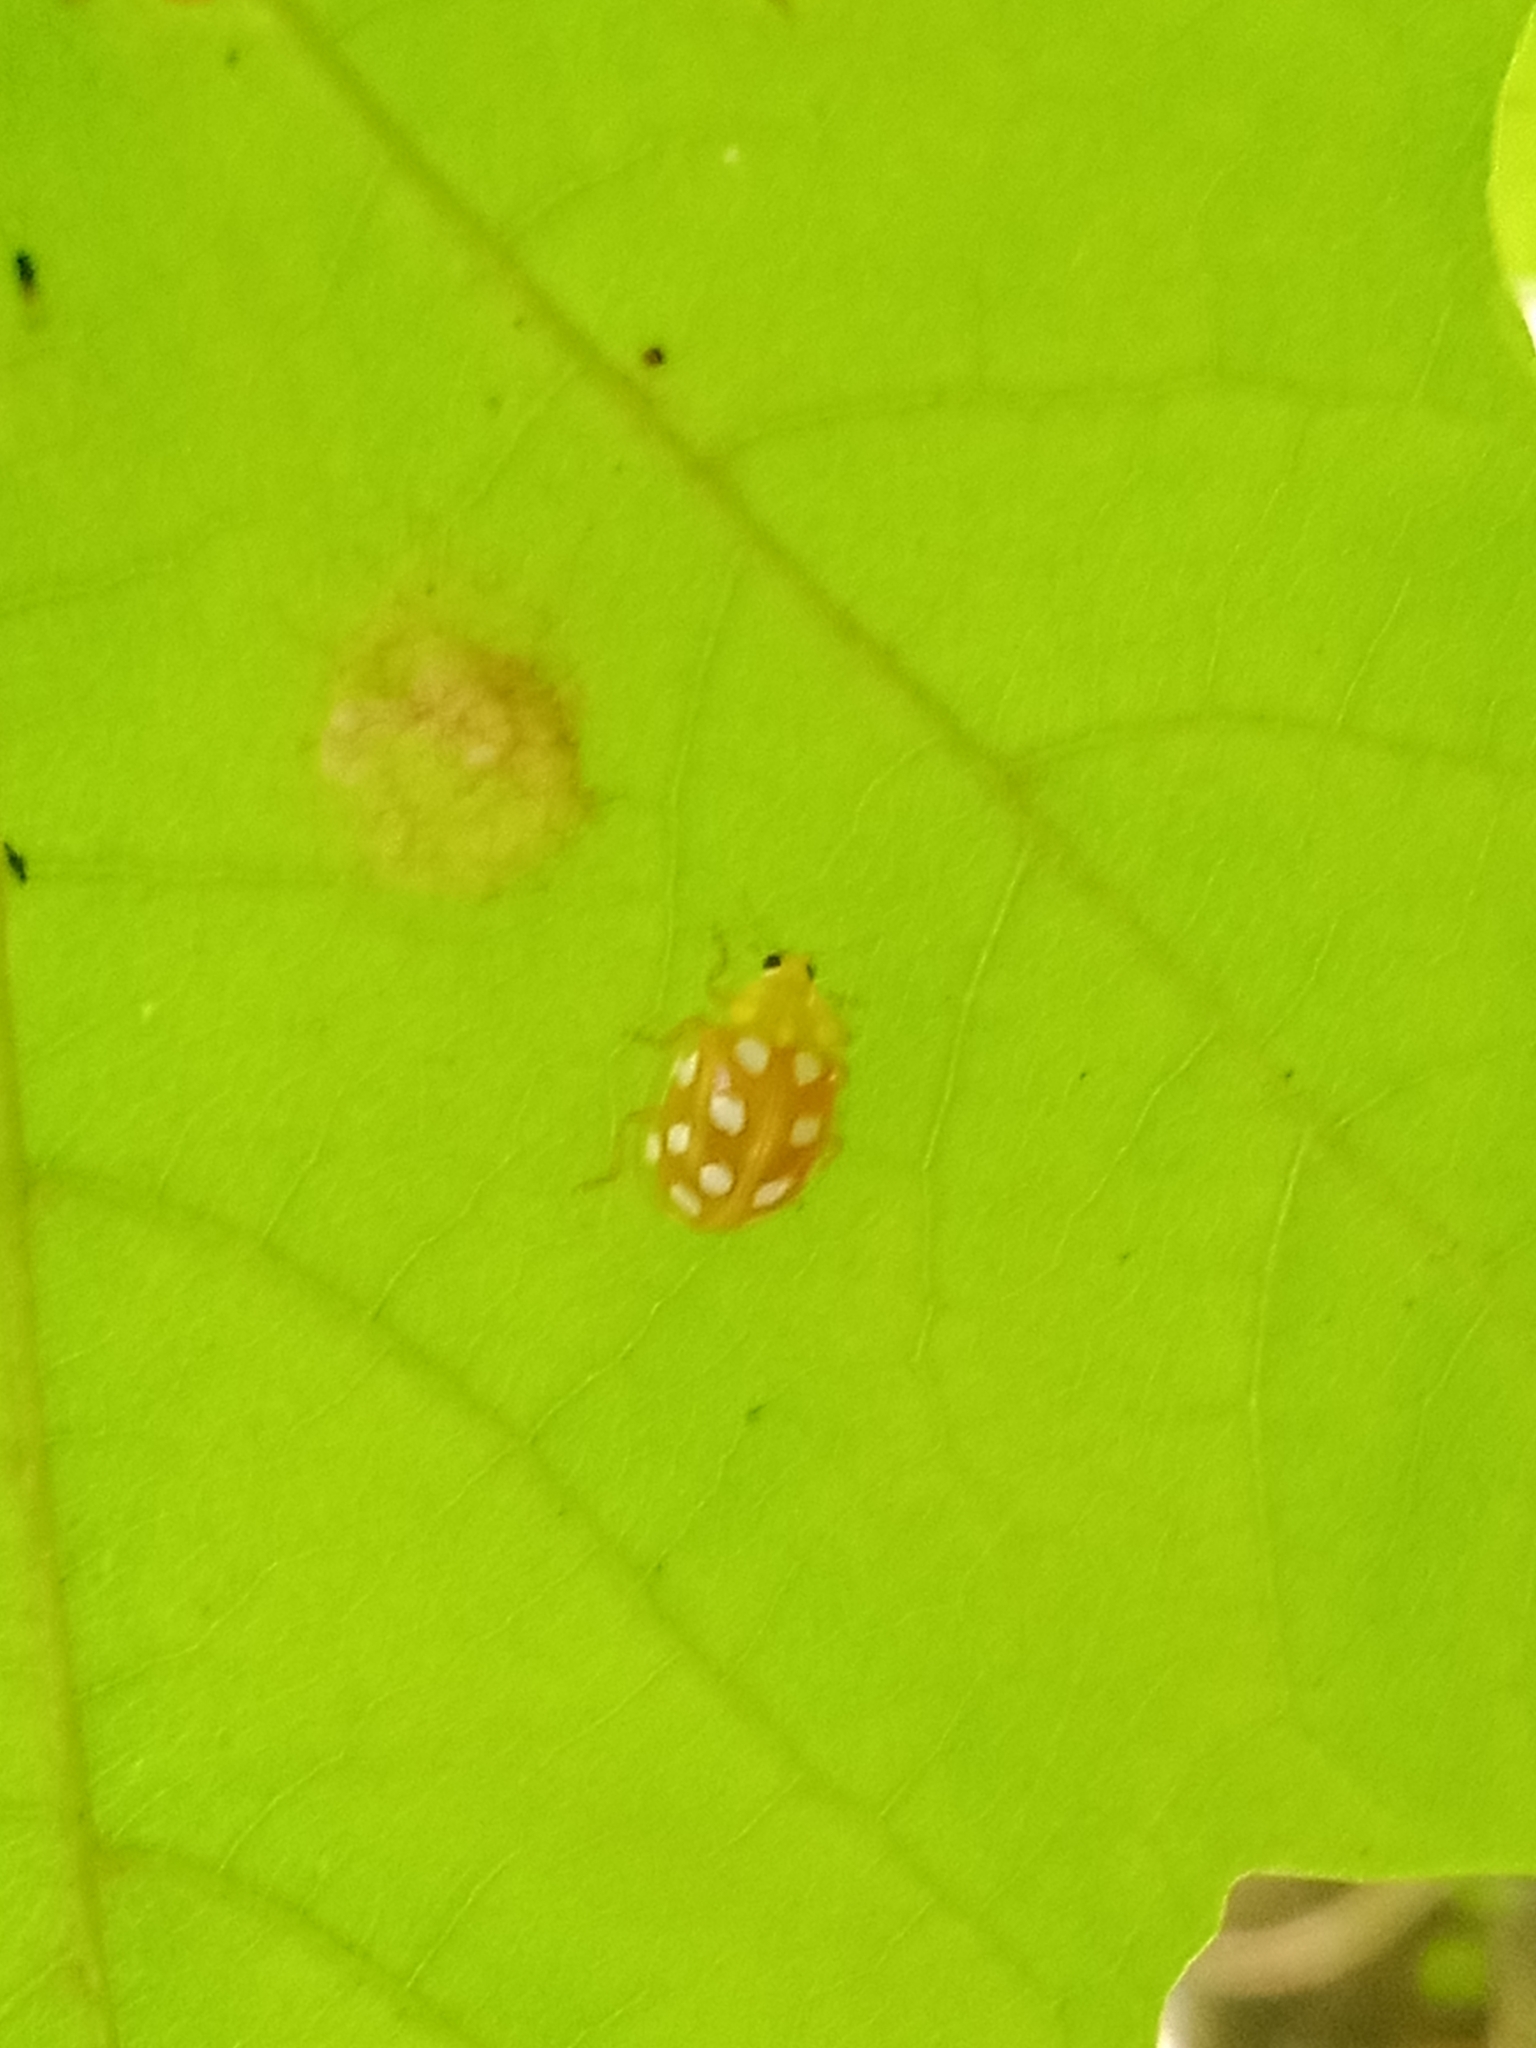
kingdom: Animalia
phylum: Arthropoda
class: Insecta
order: Coleoptera
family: Coccinellidae
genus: Halyzia
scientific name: Halyzia sedecimguttata
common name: Orange ladybird
